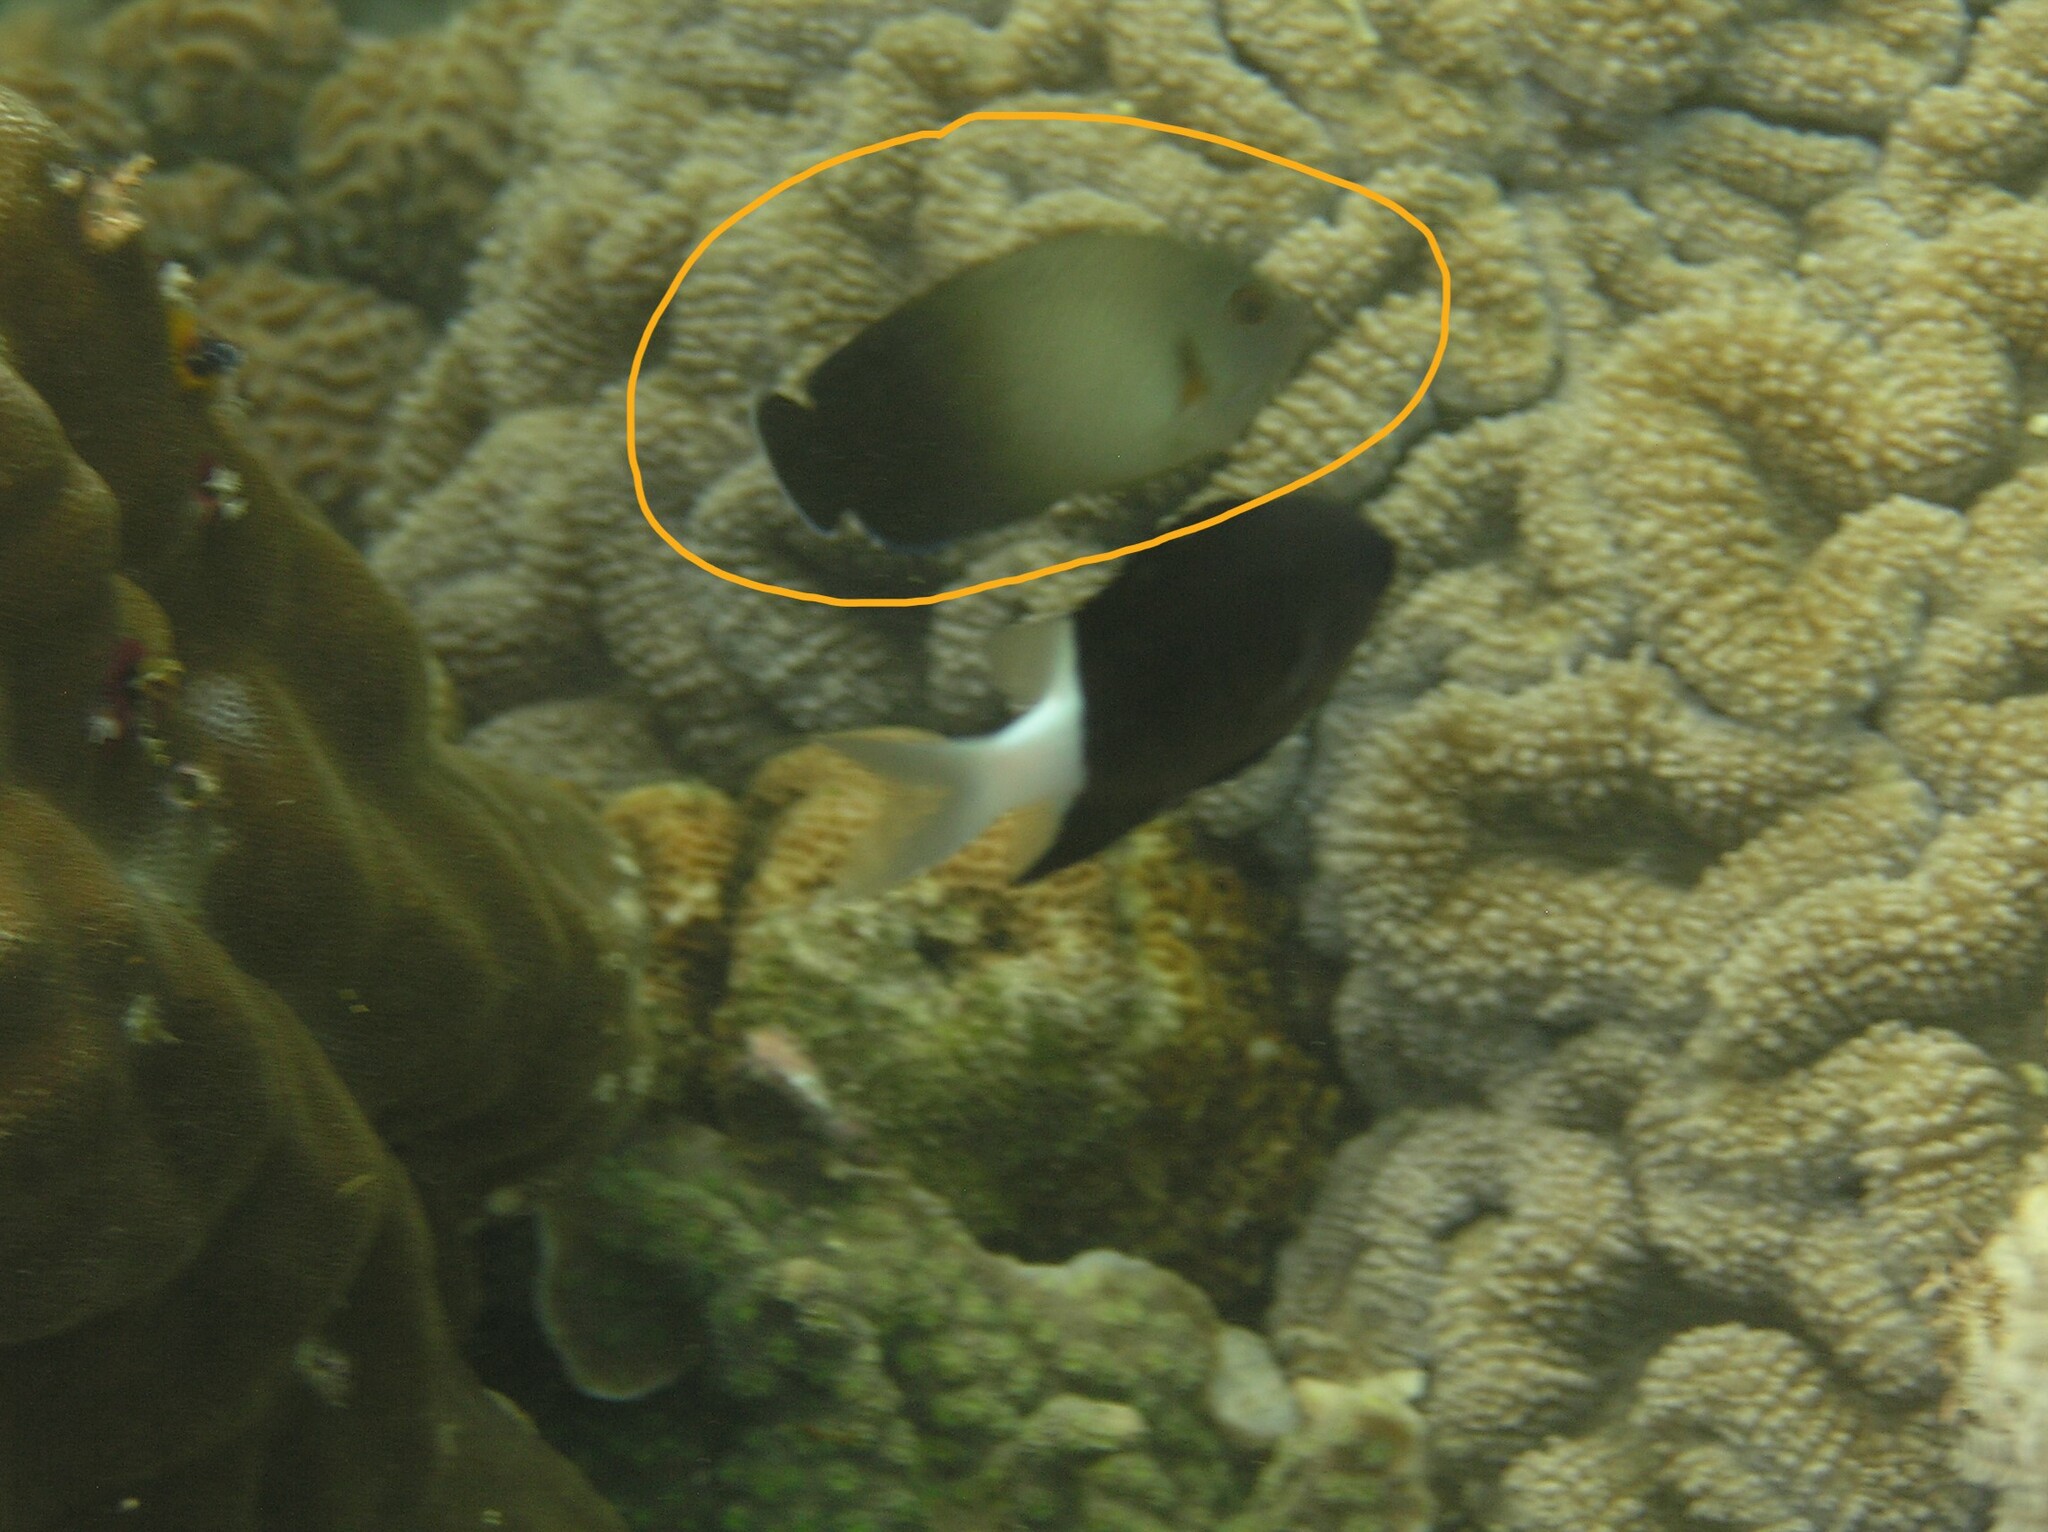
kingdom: Animalia
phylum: Chordata
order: Perciformes
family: Pomacanthidae
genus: Centropyge
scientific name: Centropyge vrolikii
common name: Pearlscale angelfish
